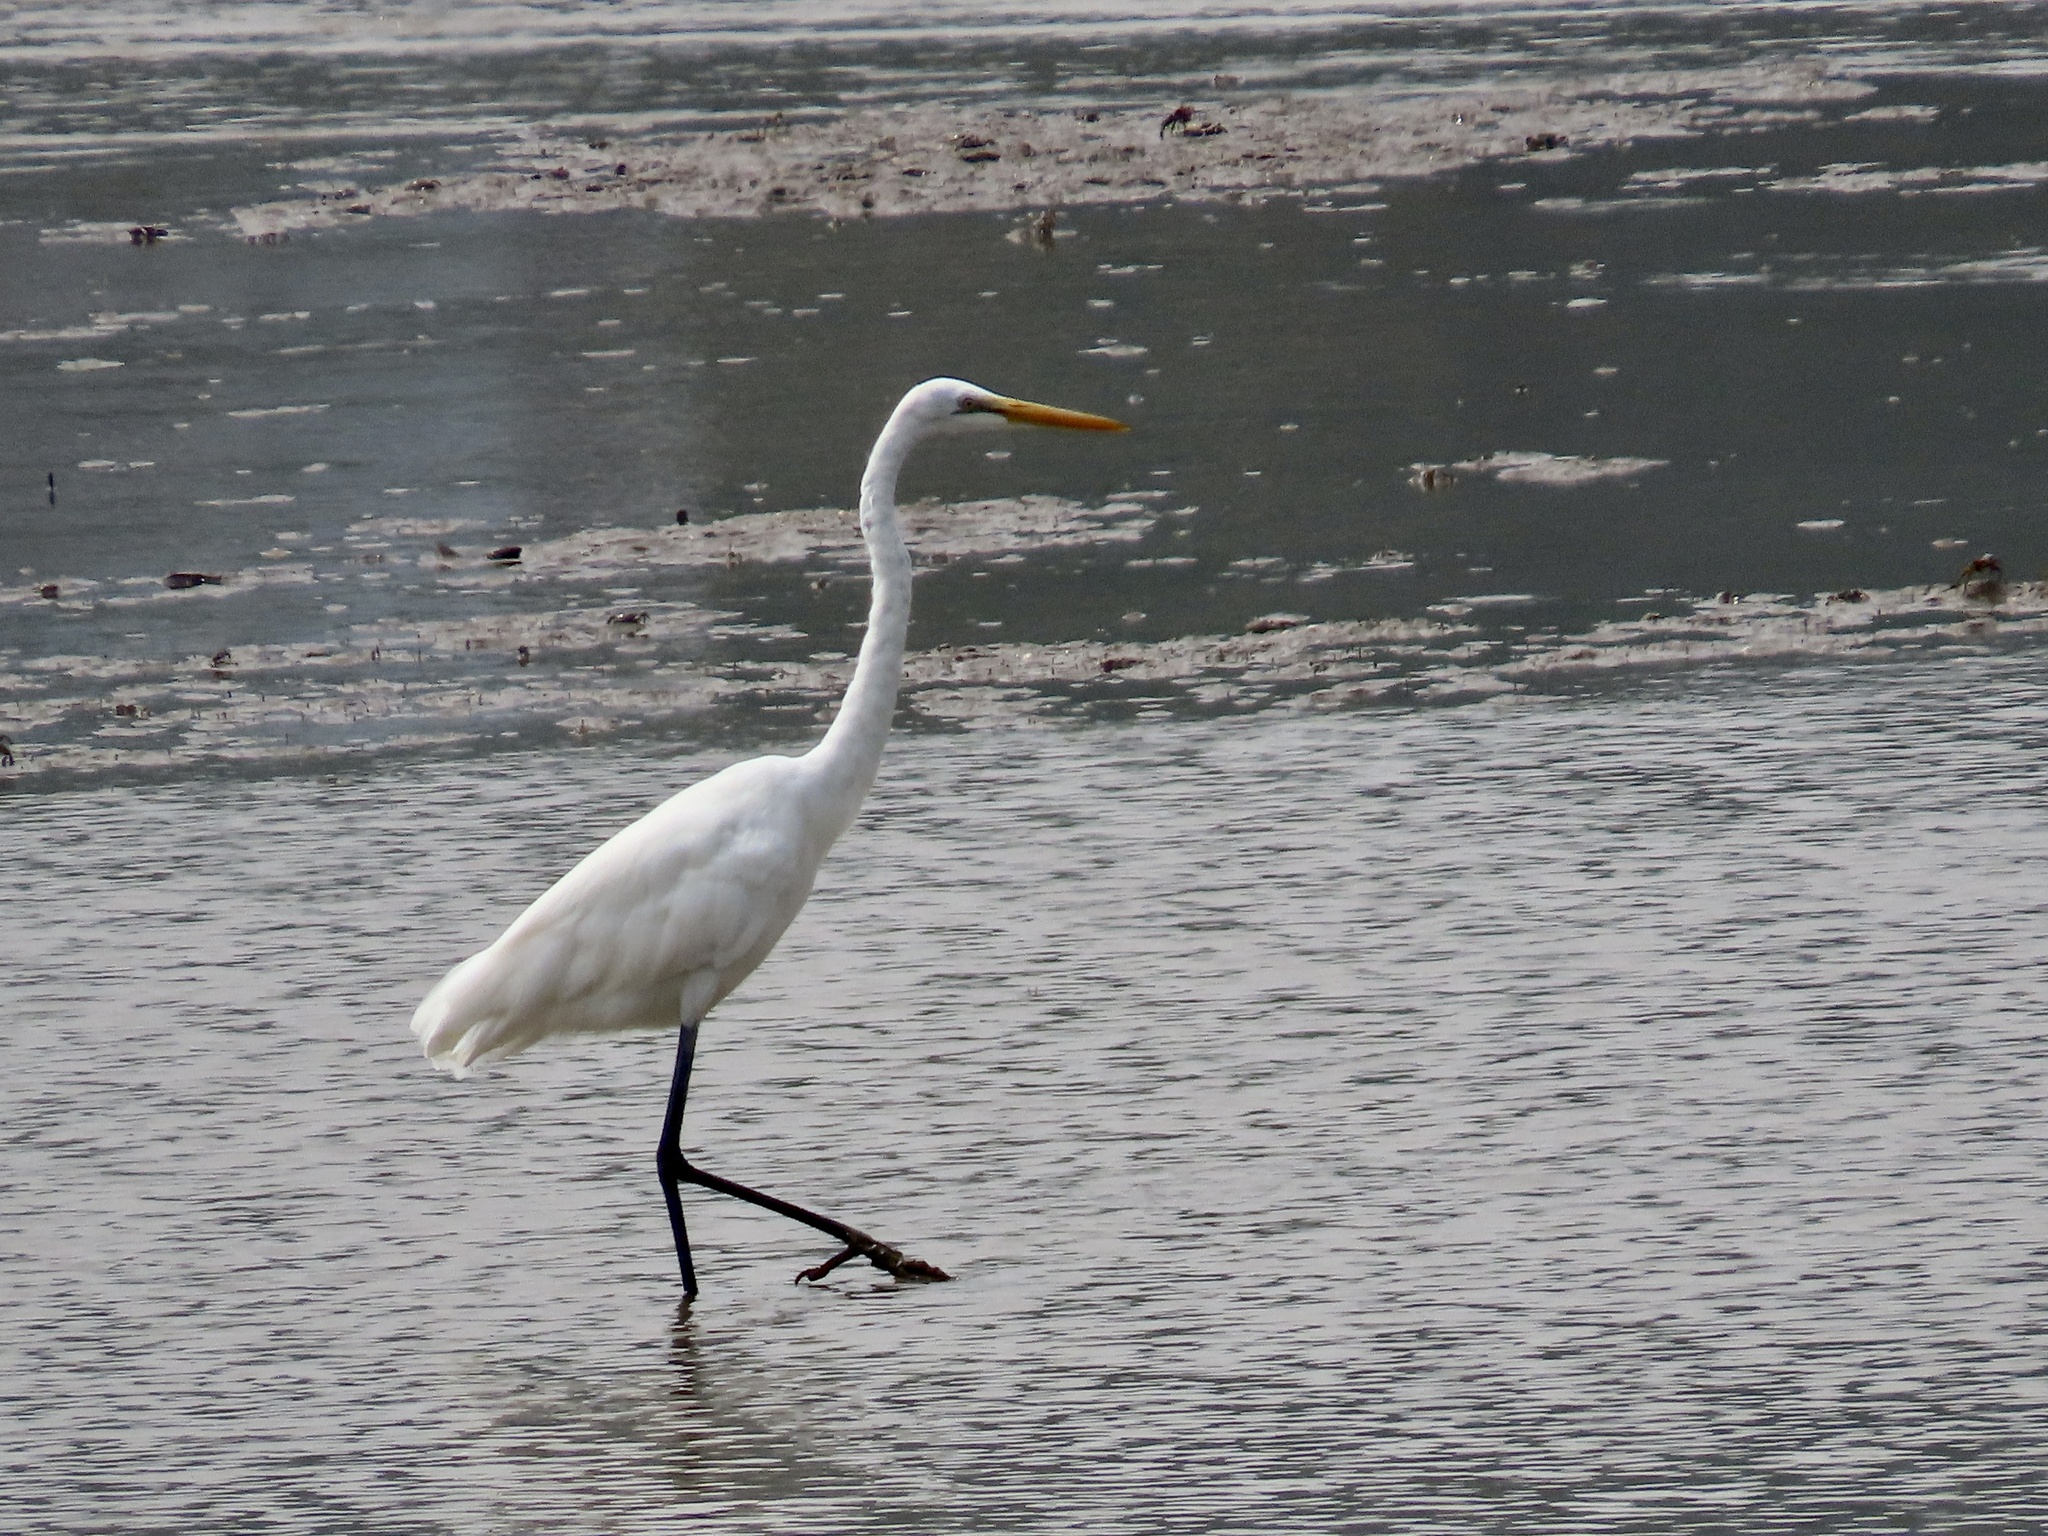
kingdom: Animalia
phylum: Chordata
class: Aves
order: Pelecaniformes
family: Ardeidae
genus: Ardea
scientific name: Ardea alba
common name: Great egret
